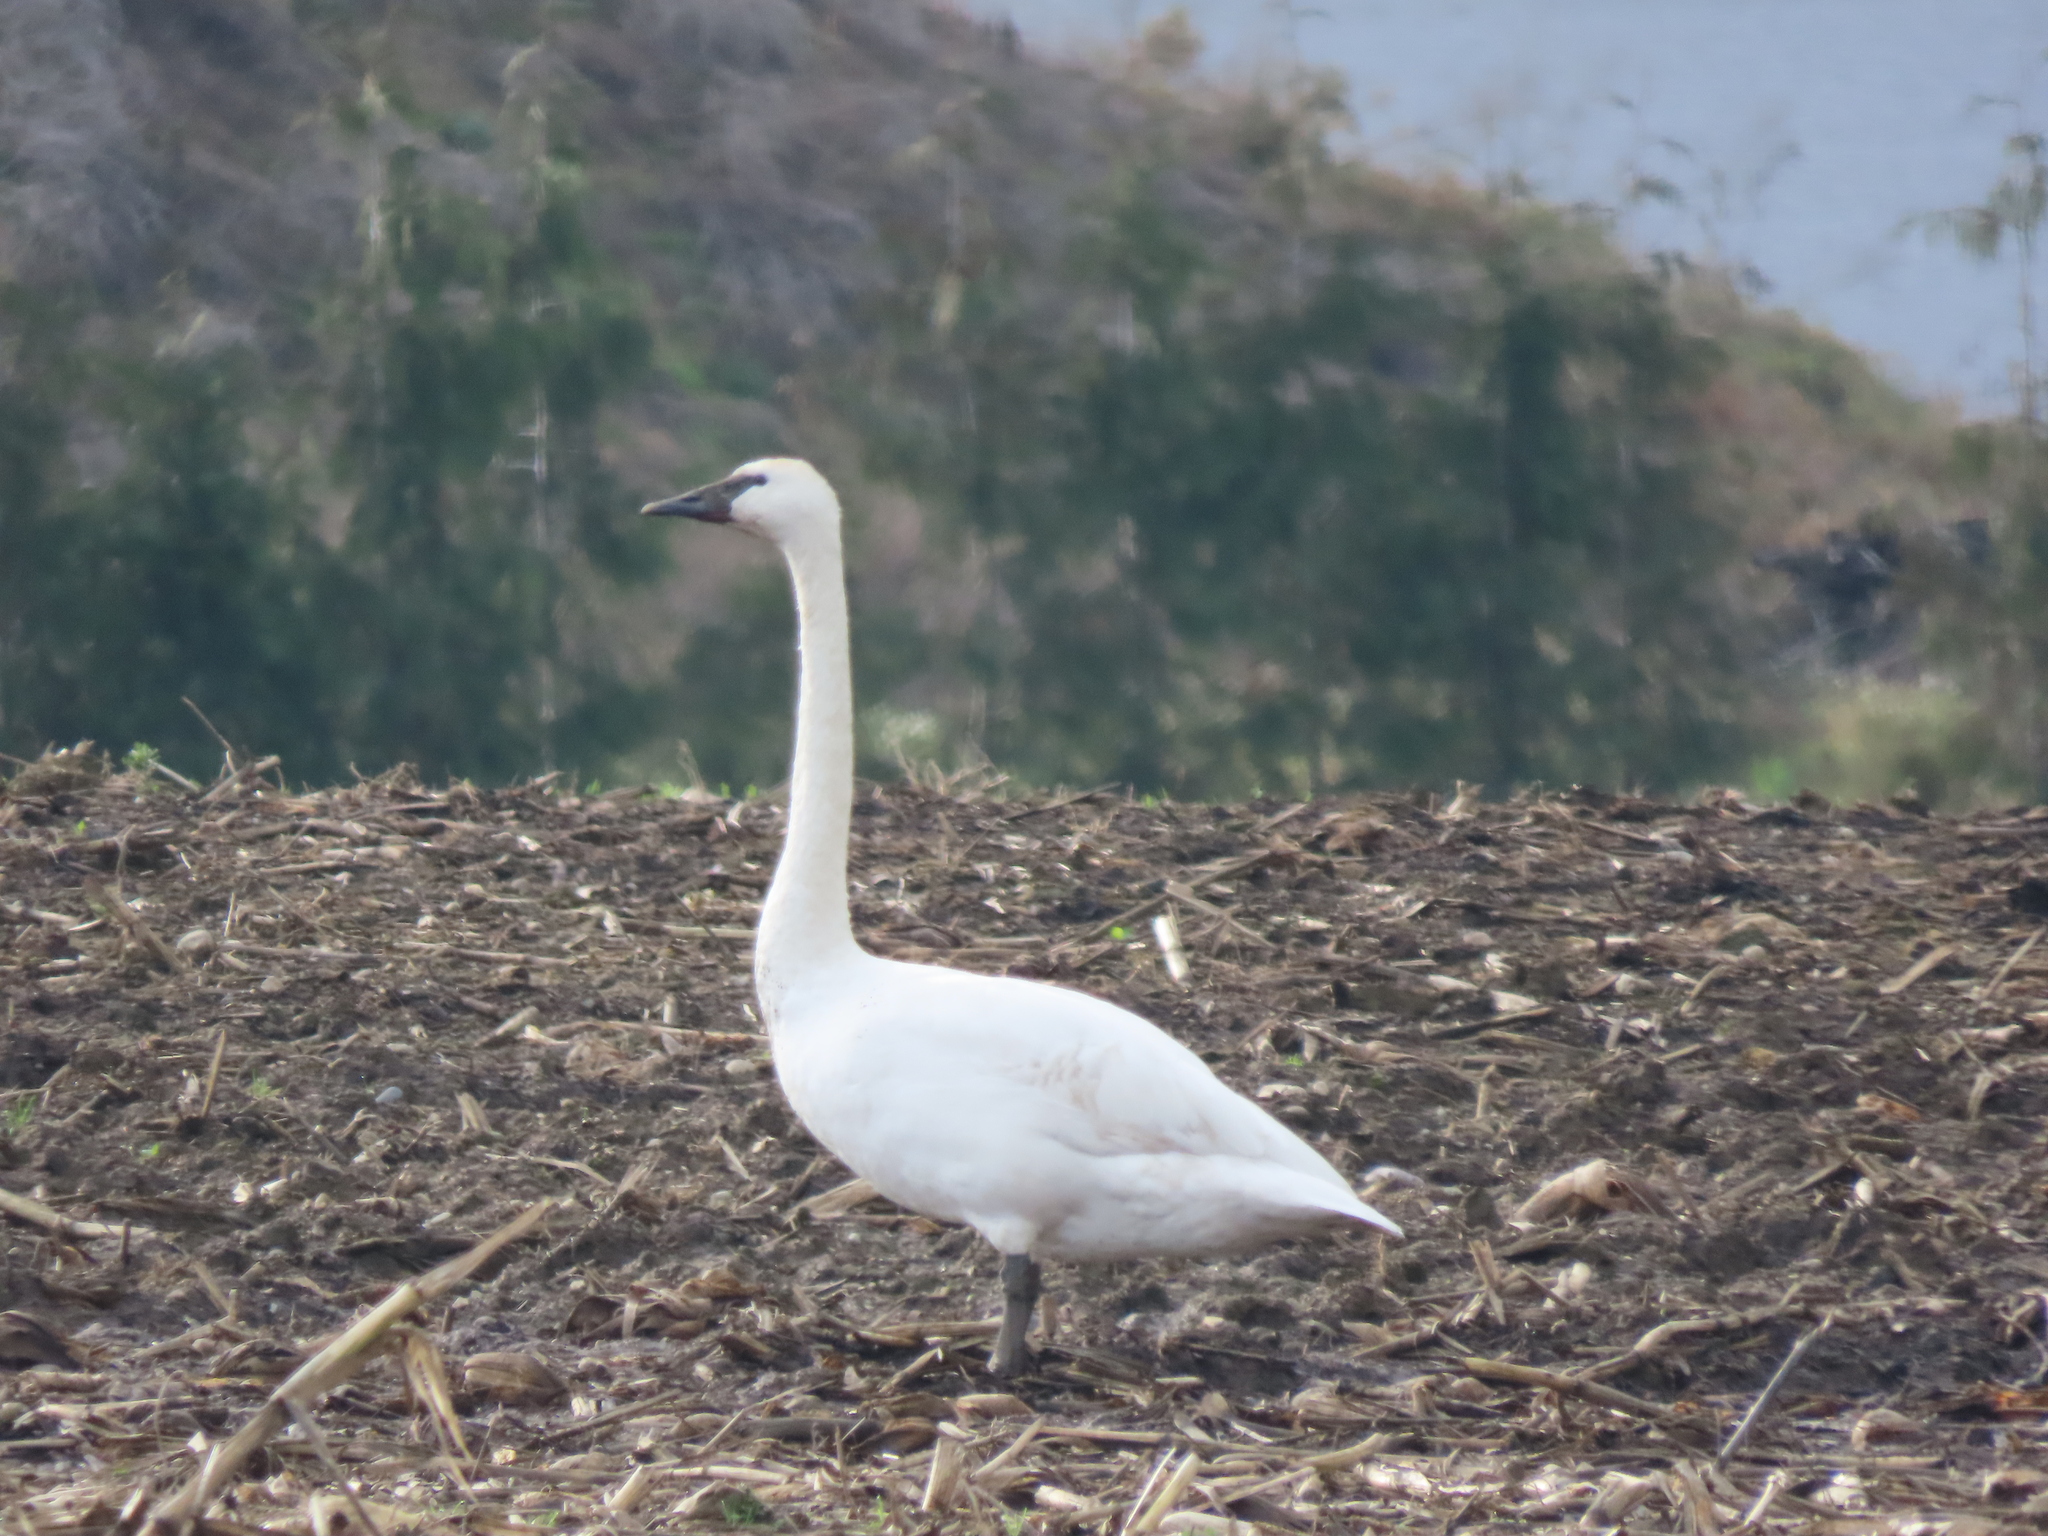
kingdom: Animalia
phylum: Chordata
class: Aves
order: Anseriformes
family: Anatidae
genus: Cygnus
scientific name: Cygnus buccinator
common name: Trumpeter swan
